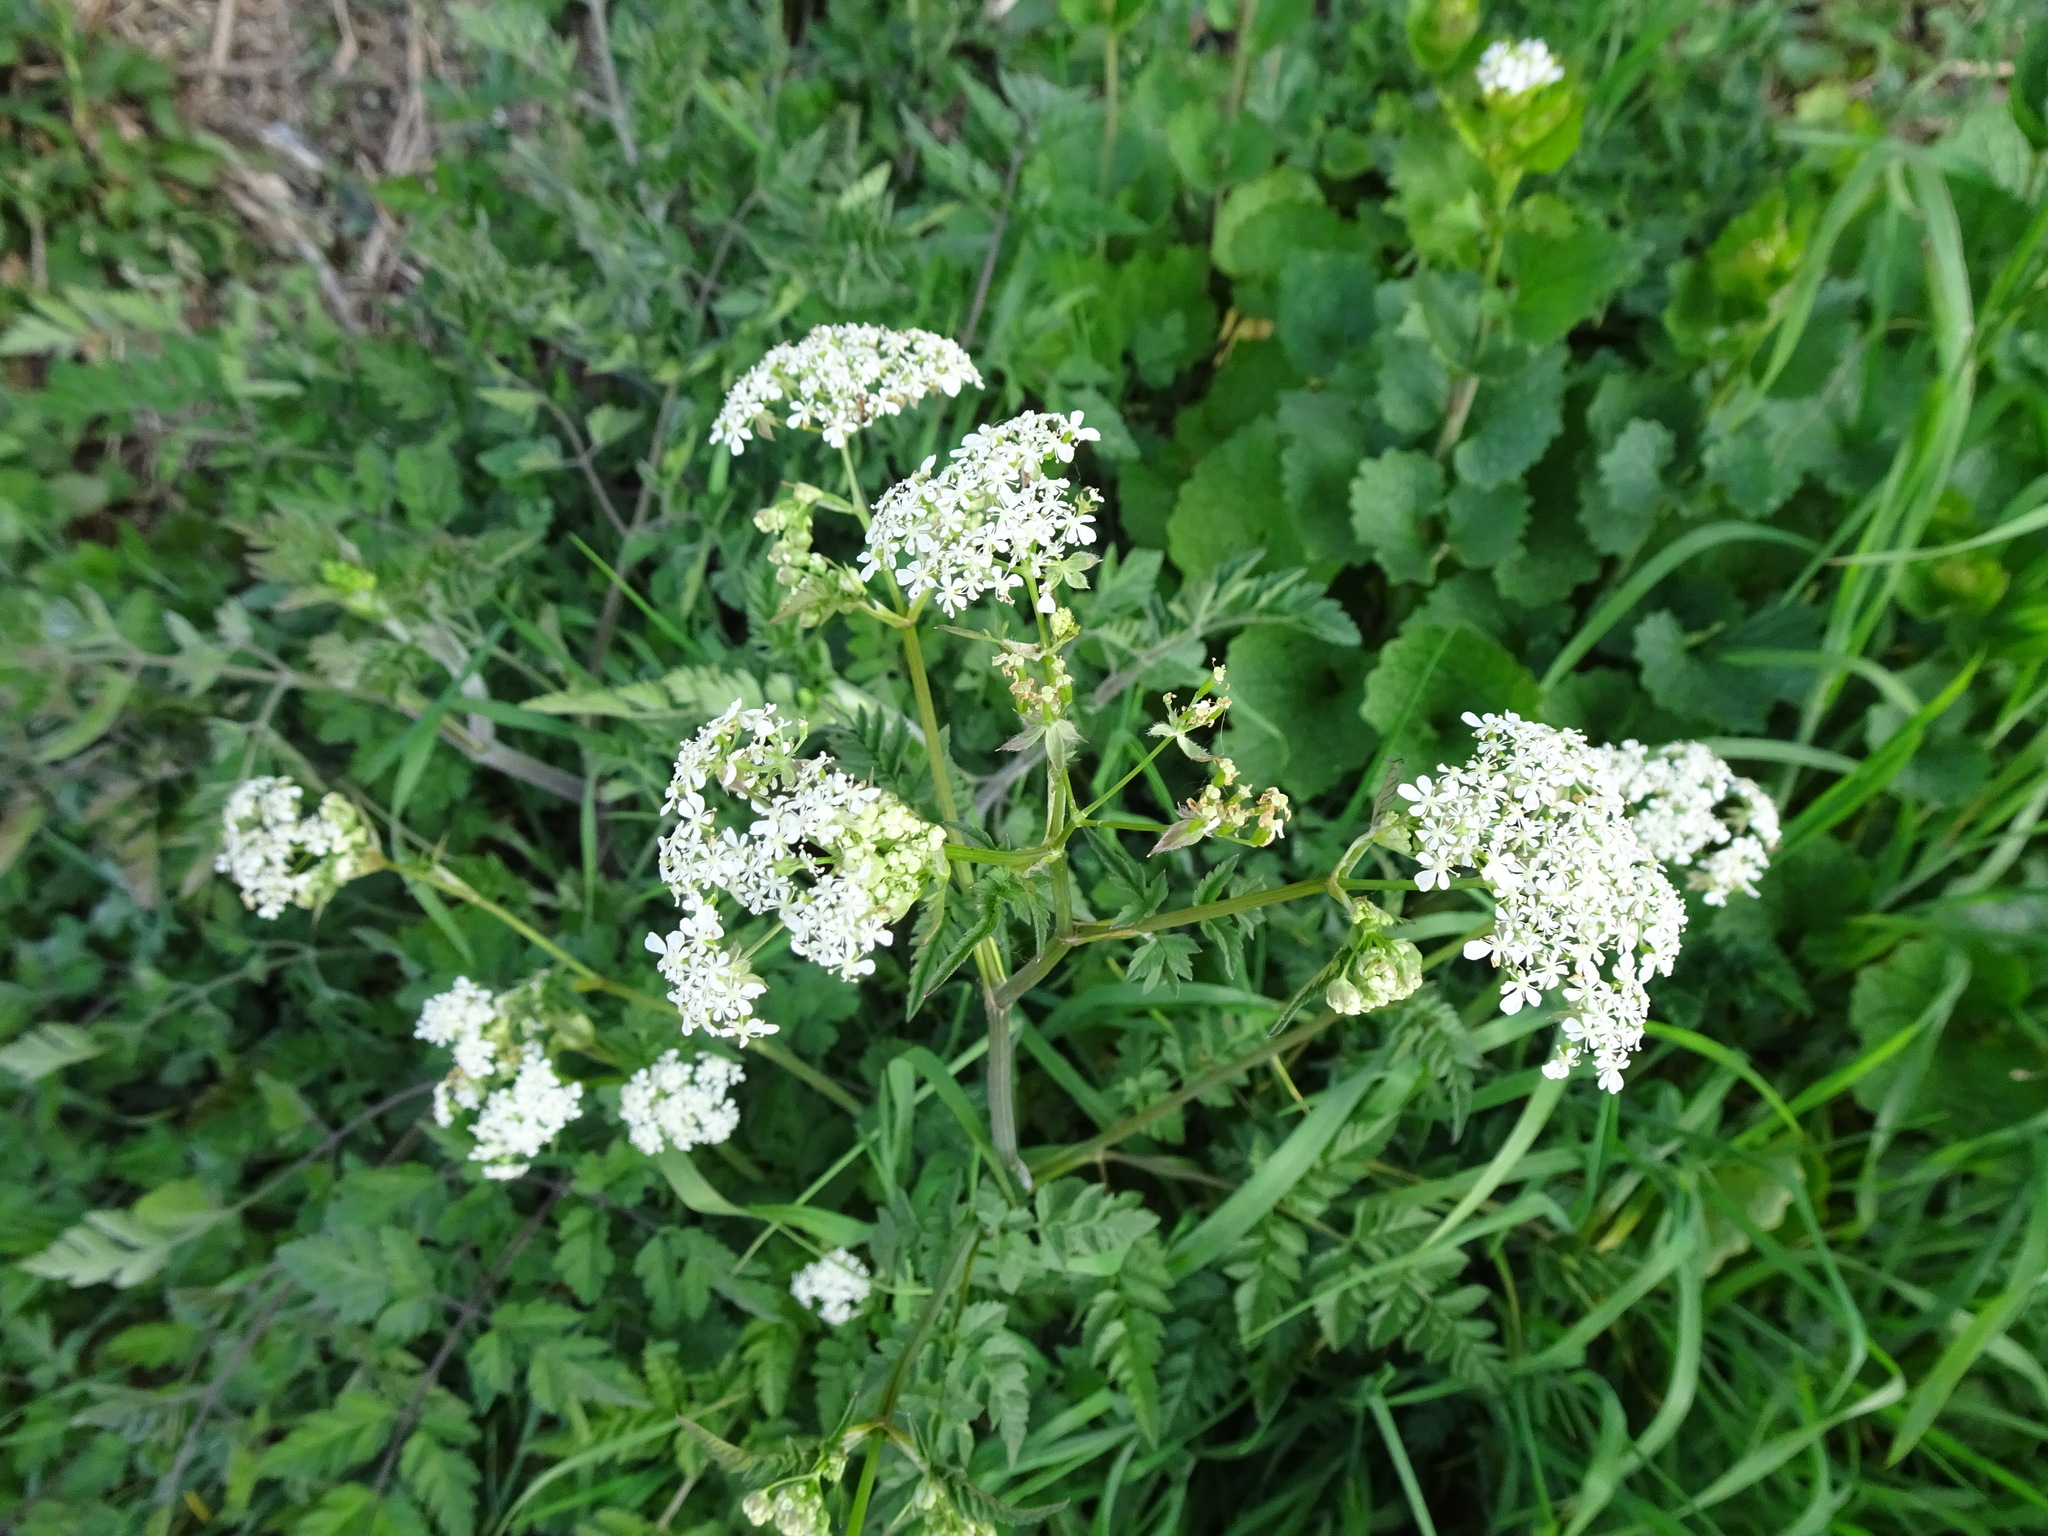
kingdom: Plantae
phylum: Tracheophyta
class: Magnoliopsida
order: Apiales
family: Apiaceae
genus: Anthriscus
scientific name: Anthriscus sylvestris
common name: Cow parsley
